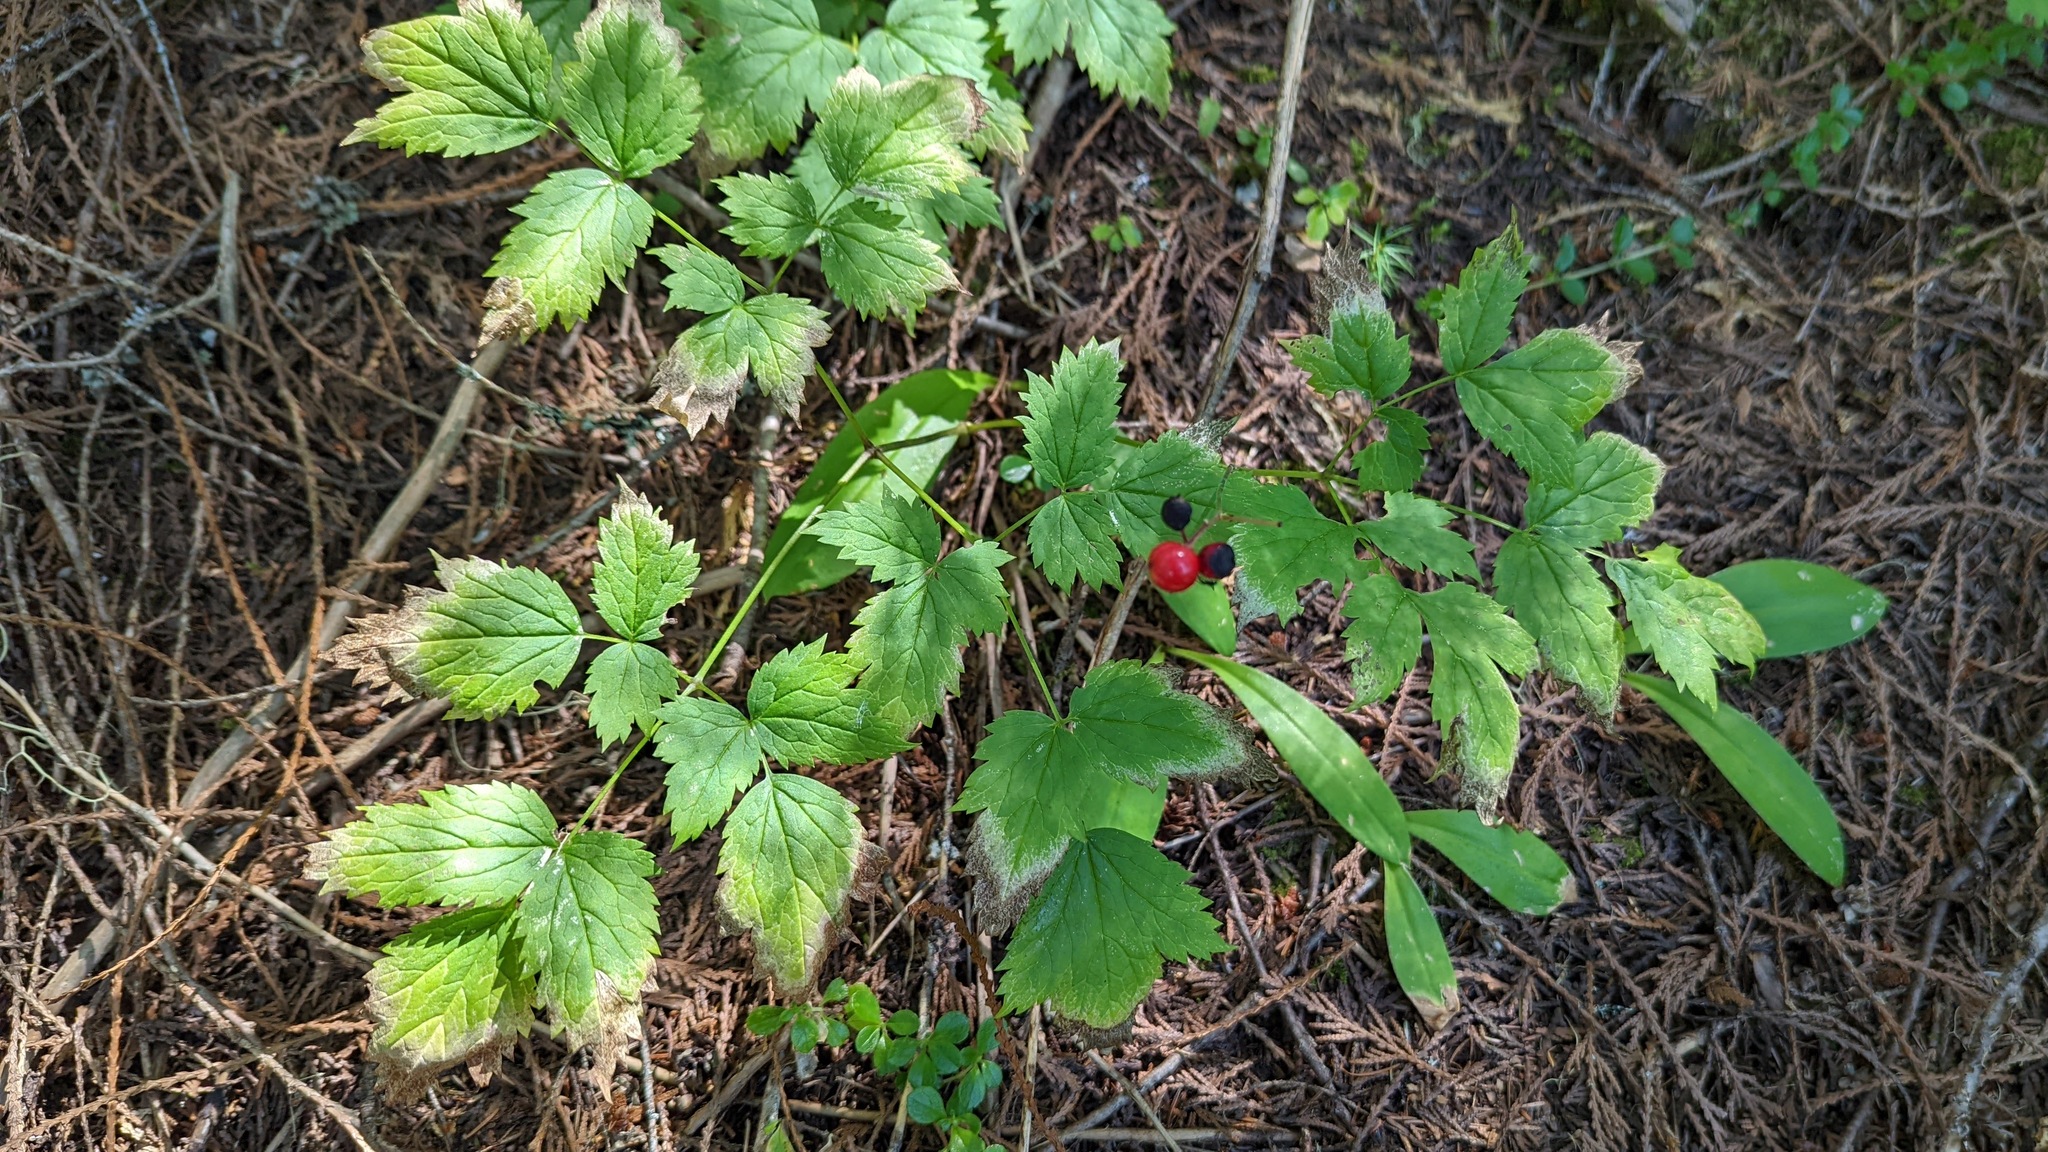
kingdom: Plantae
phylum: Tracheophyta
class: Magnoliopsida
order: Ranunculales
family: Ranunculaceae
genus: Actaea
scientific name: Actaea rubra
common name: Red baneberry
